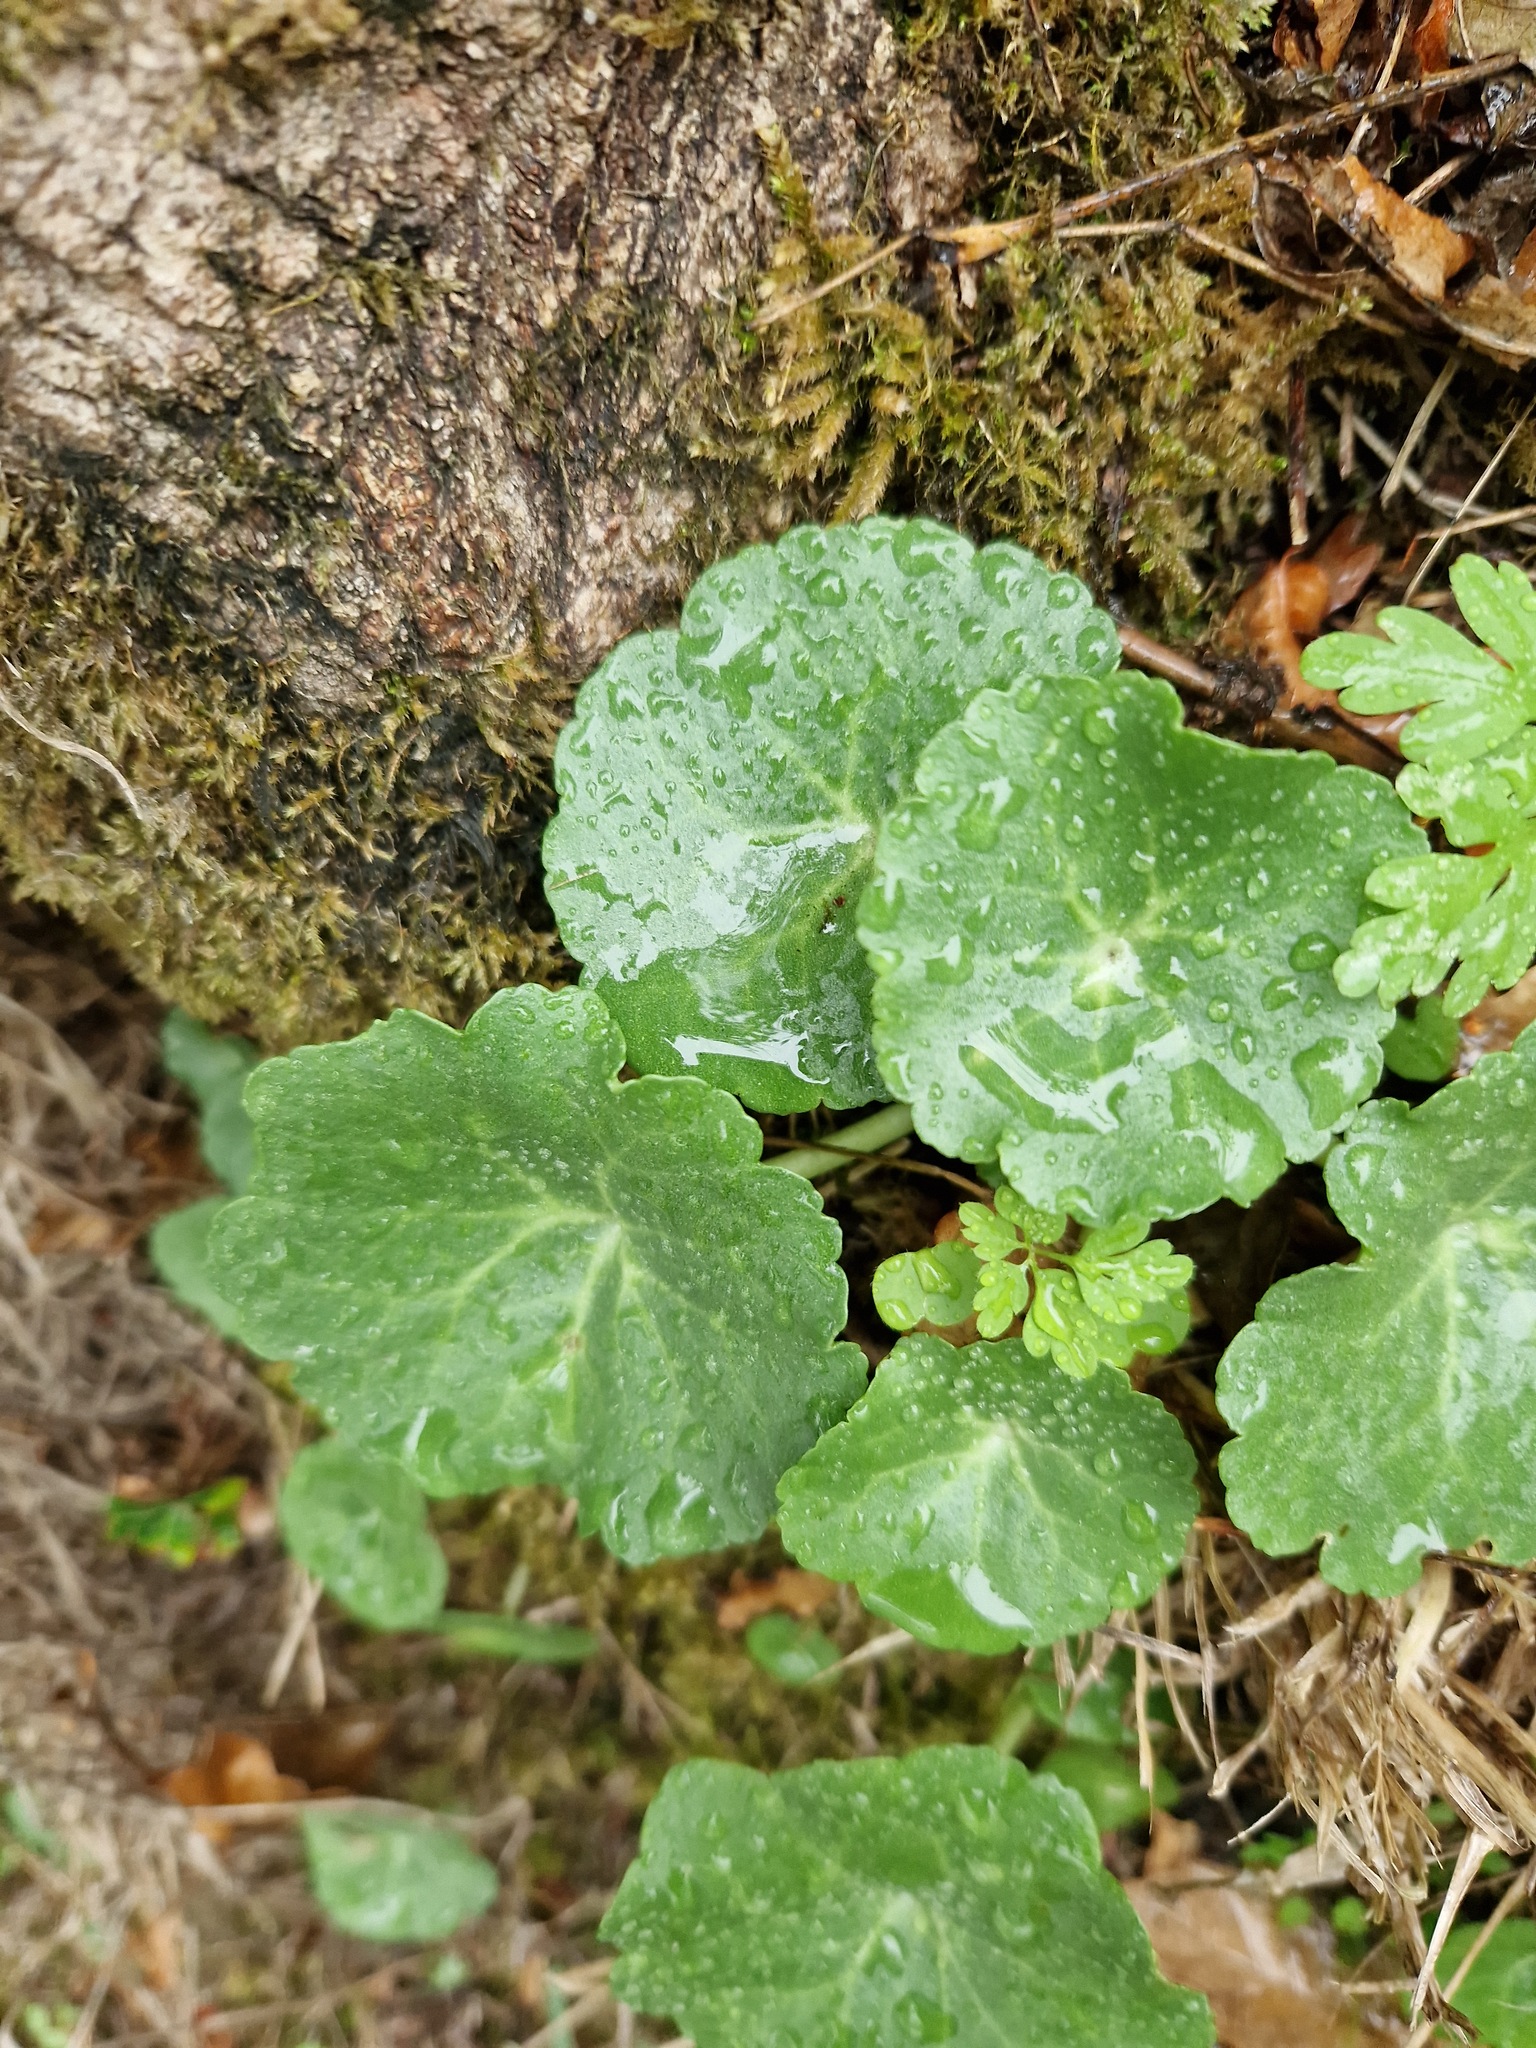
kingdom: Plantae
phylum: Tracheophyta
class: Magnoliopsida
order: Saxifragales
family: Crassulaceae
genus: Umbilicus
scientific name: Umbilicus rupestris
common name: Navelwort
